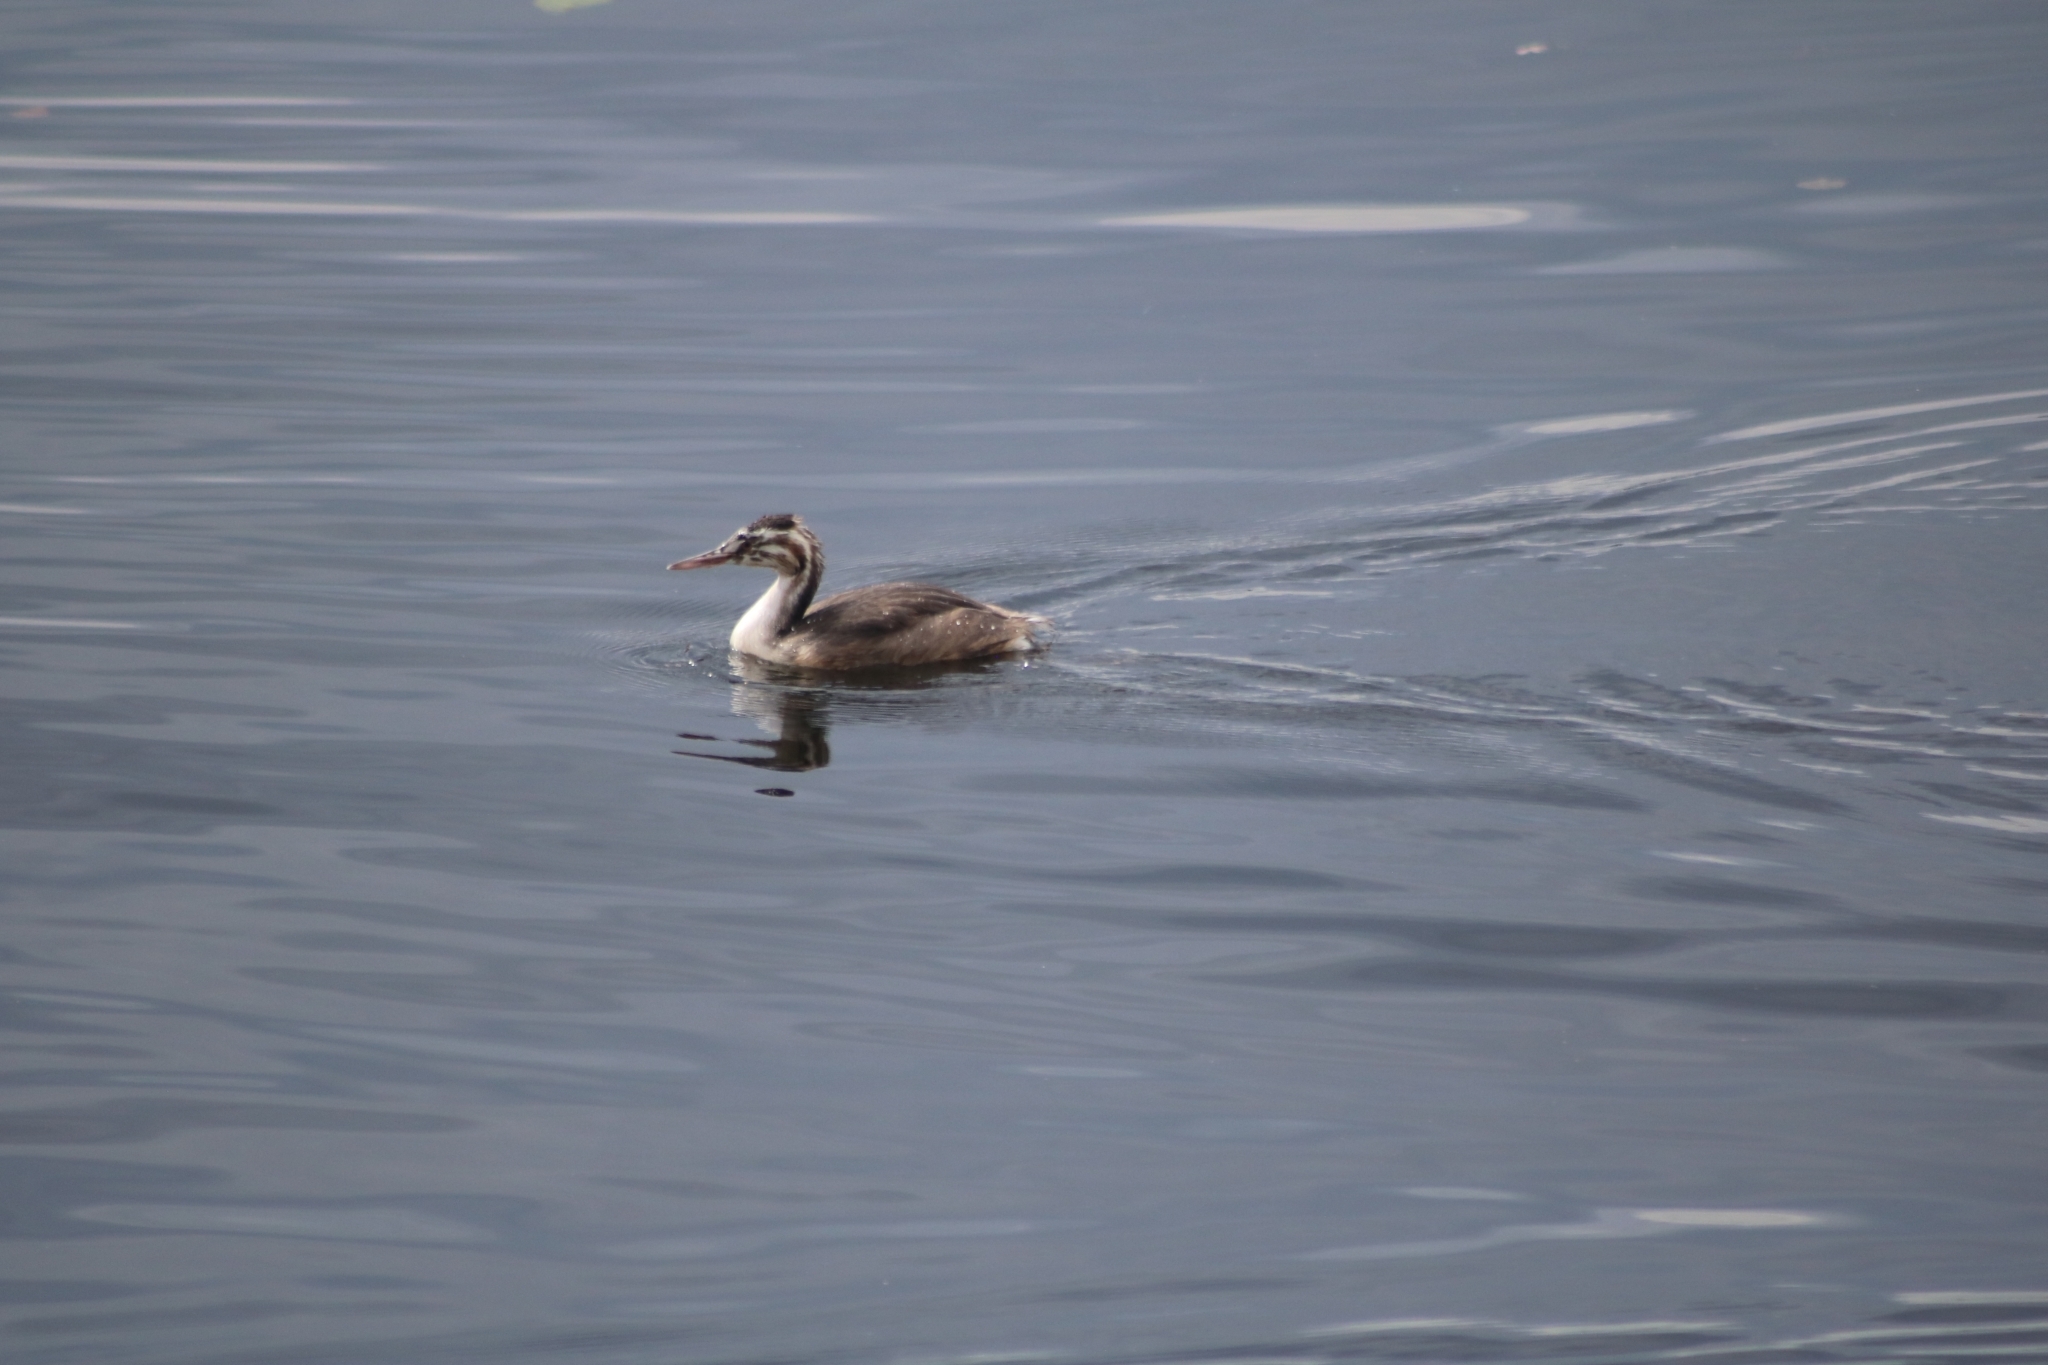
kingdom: Animalia
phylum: Chordata
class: Aves
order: Podicipediformes
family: Podicipedidae
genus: Podiceps
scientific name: Podiceps cristatus
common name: Great crested grebe
